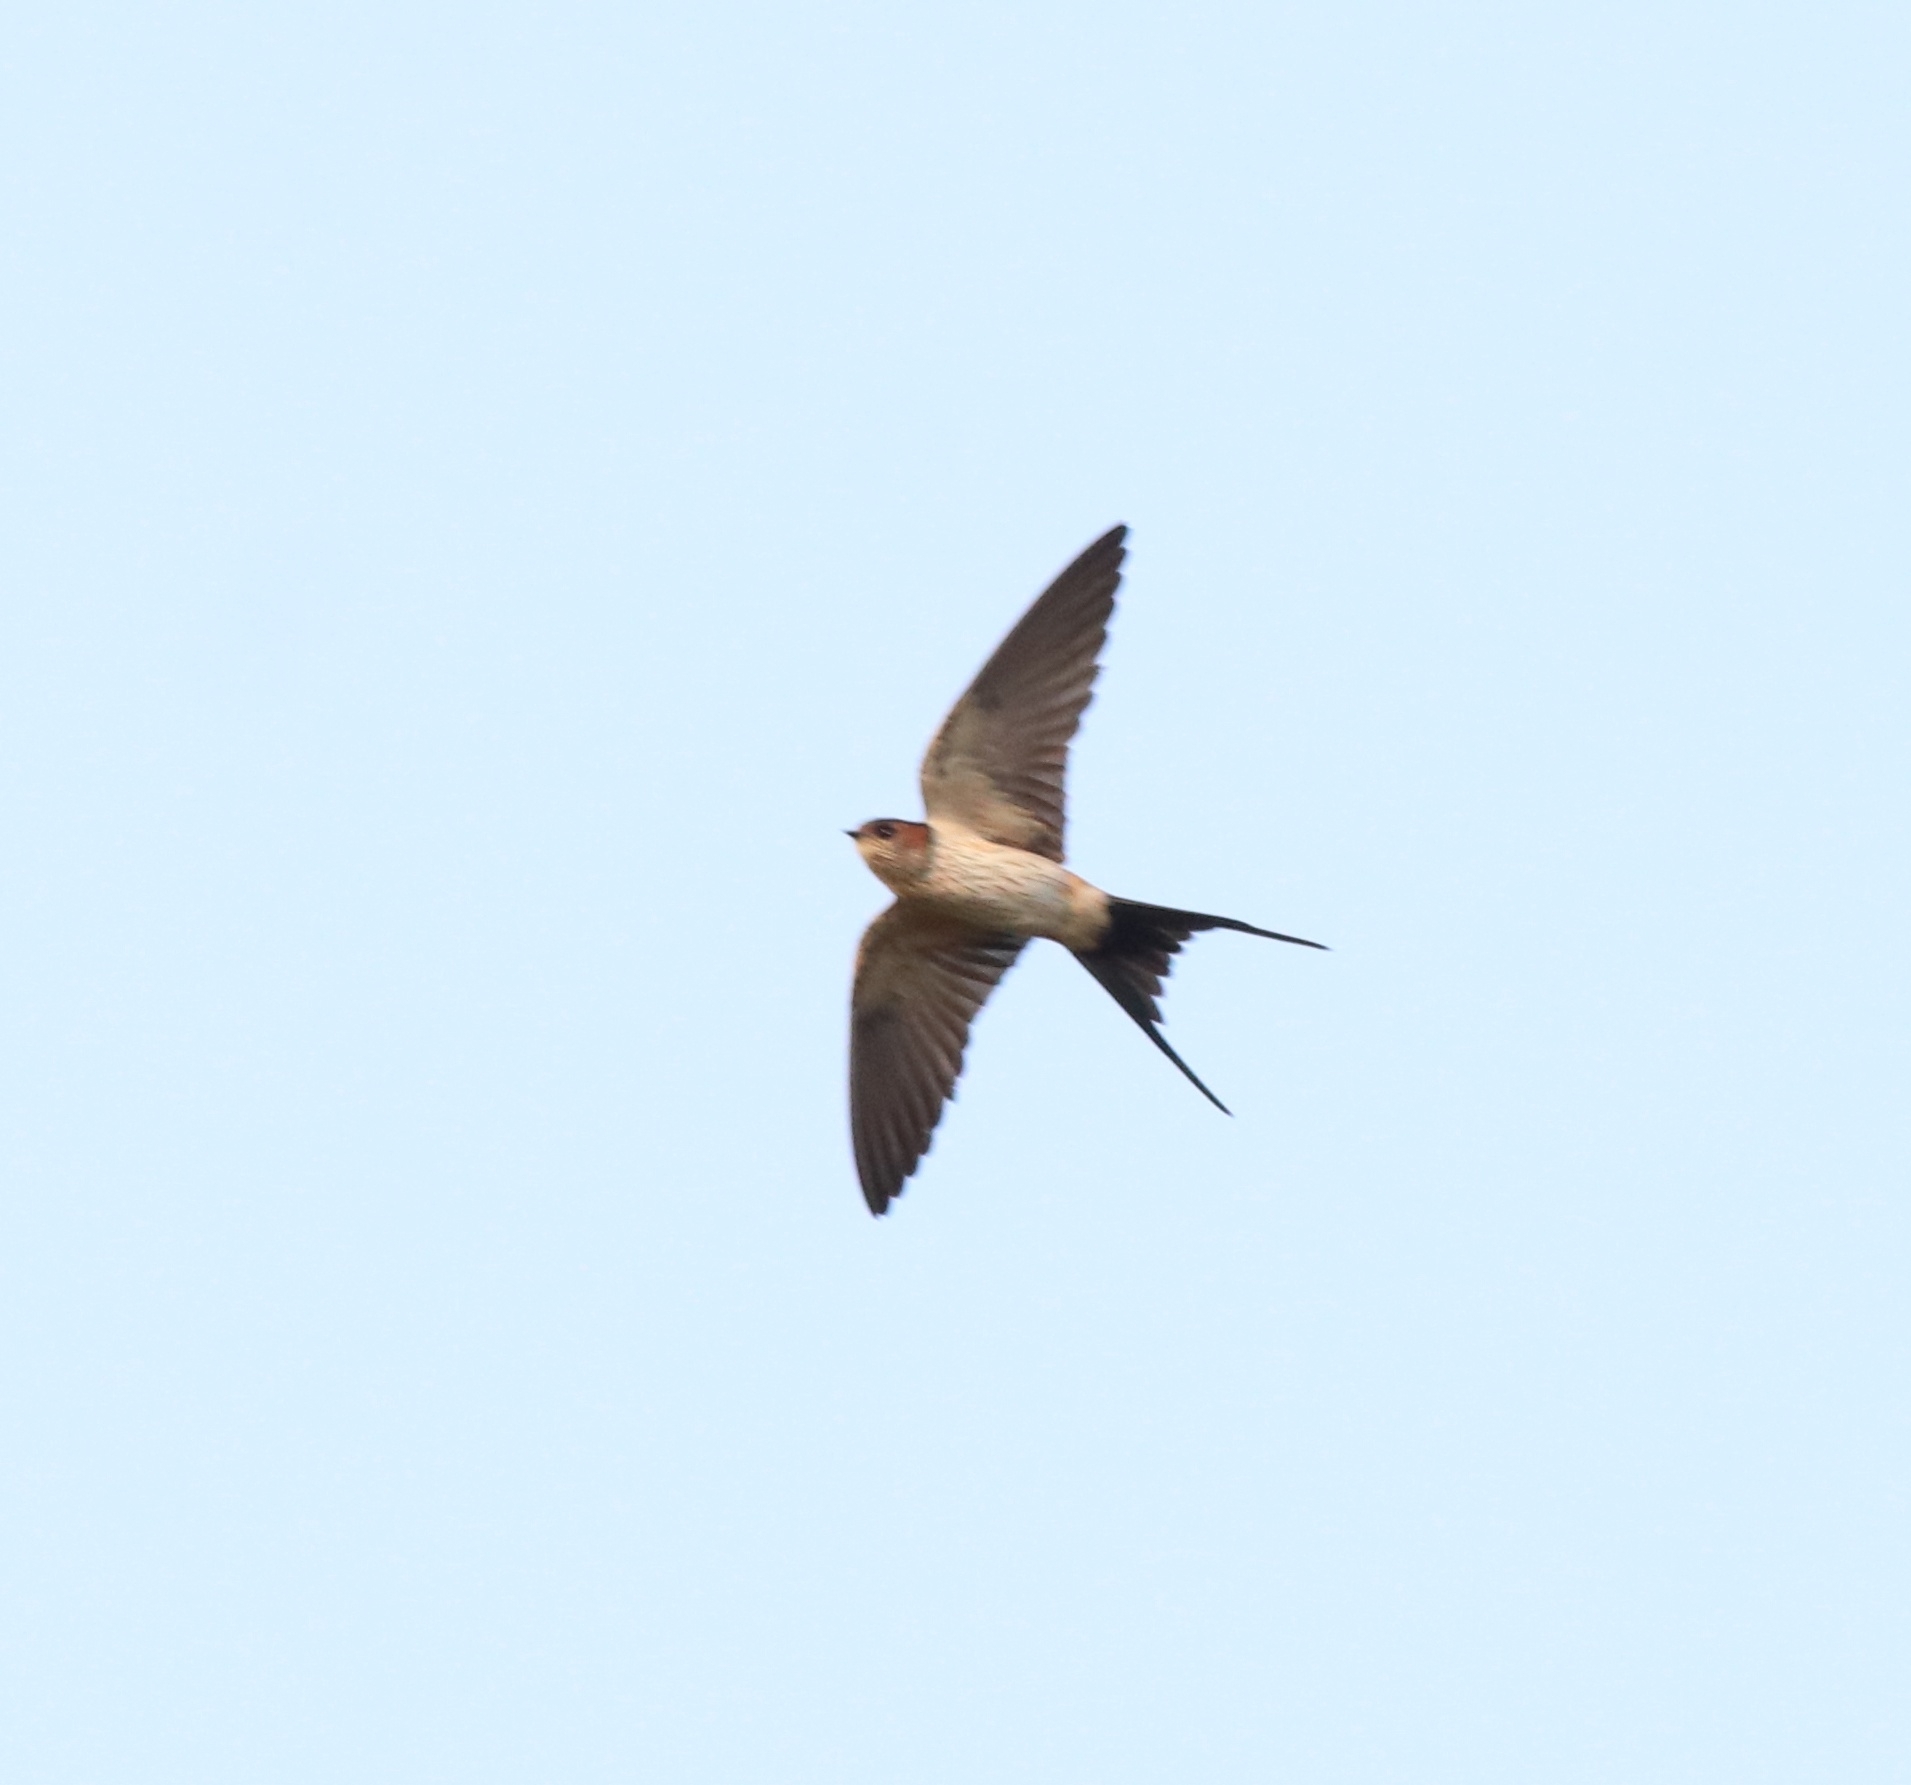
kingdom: Animalia
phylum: Chordata
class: Aves
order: Passeriformes
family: Hirundinidae
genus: Cecropis
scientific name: Cecropis daurica
